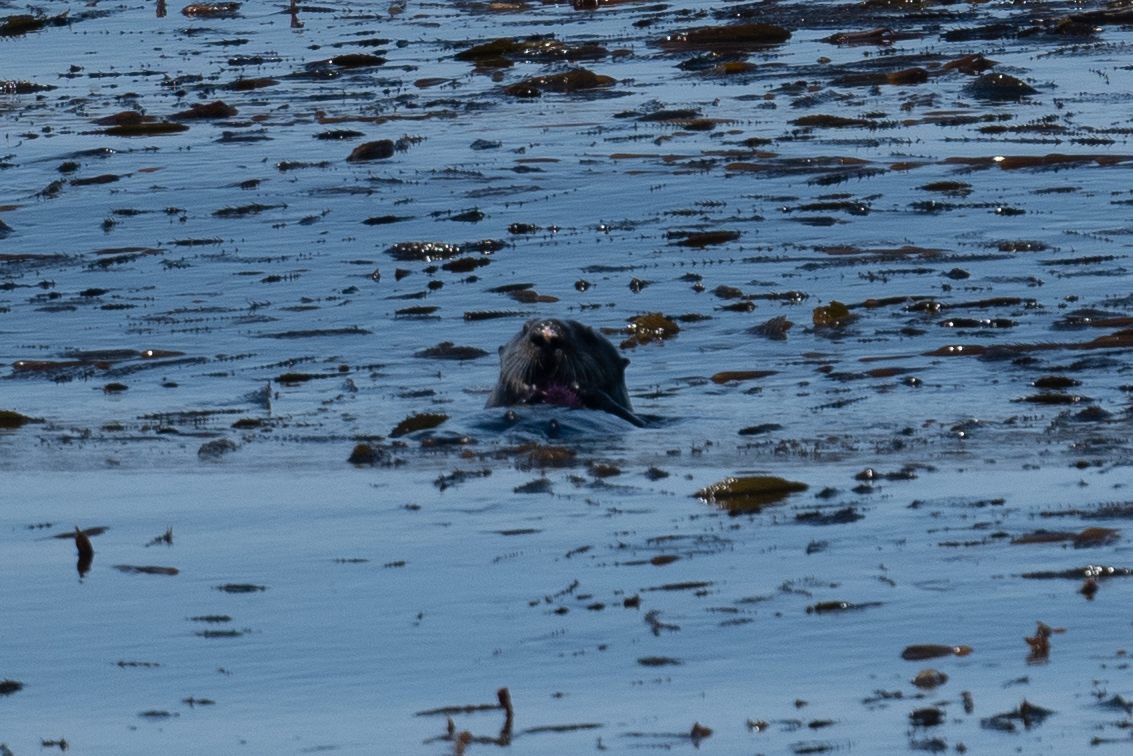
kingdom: Animalia
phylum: Chordata
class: Mammalia
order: Carnivora
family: Mustelidae
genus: Enhydra
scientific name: Enhydra lutris
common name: Sea otter
